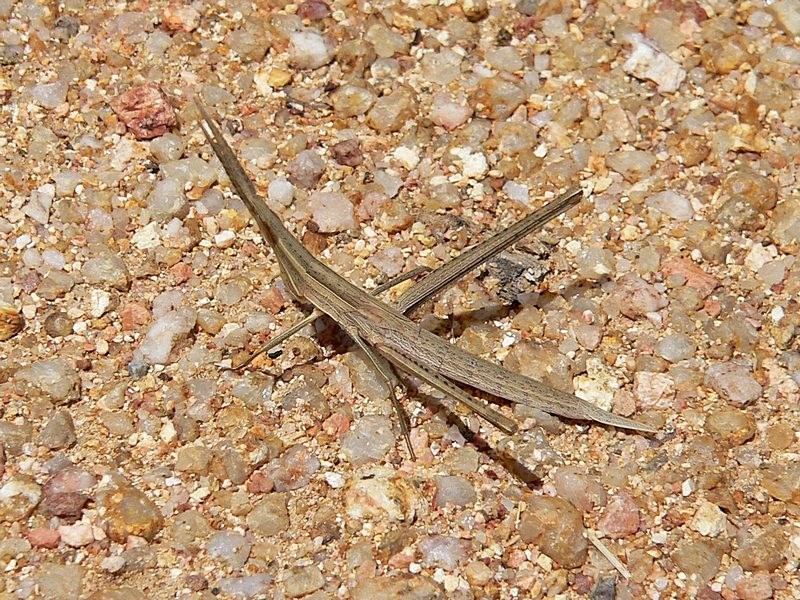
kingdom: Animalia
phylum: Arthropoda
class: Insecta
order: Orthoptera
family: Acrididae
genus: Acrida
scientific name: Acrida conica
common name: Giant green slantface
